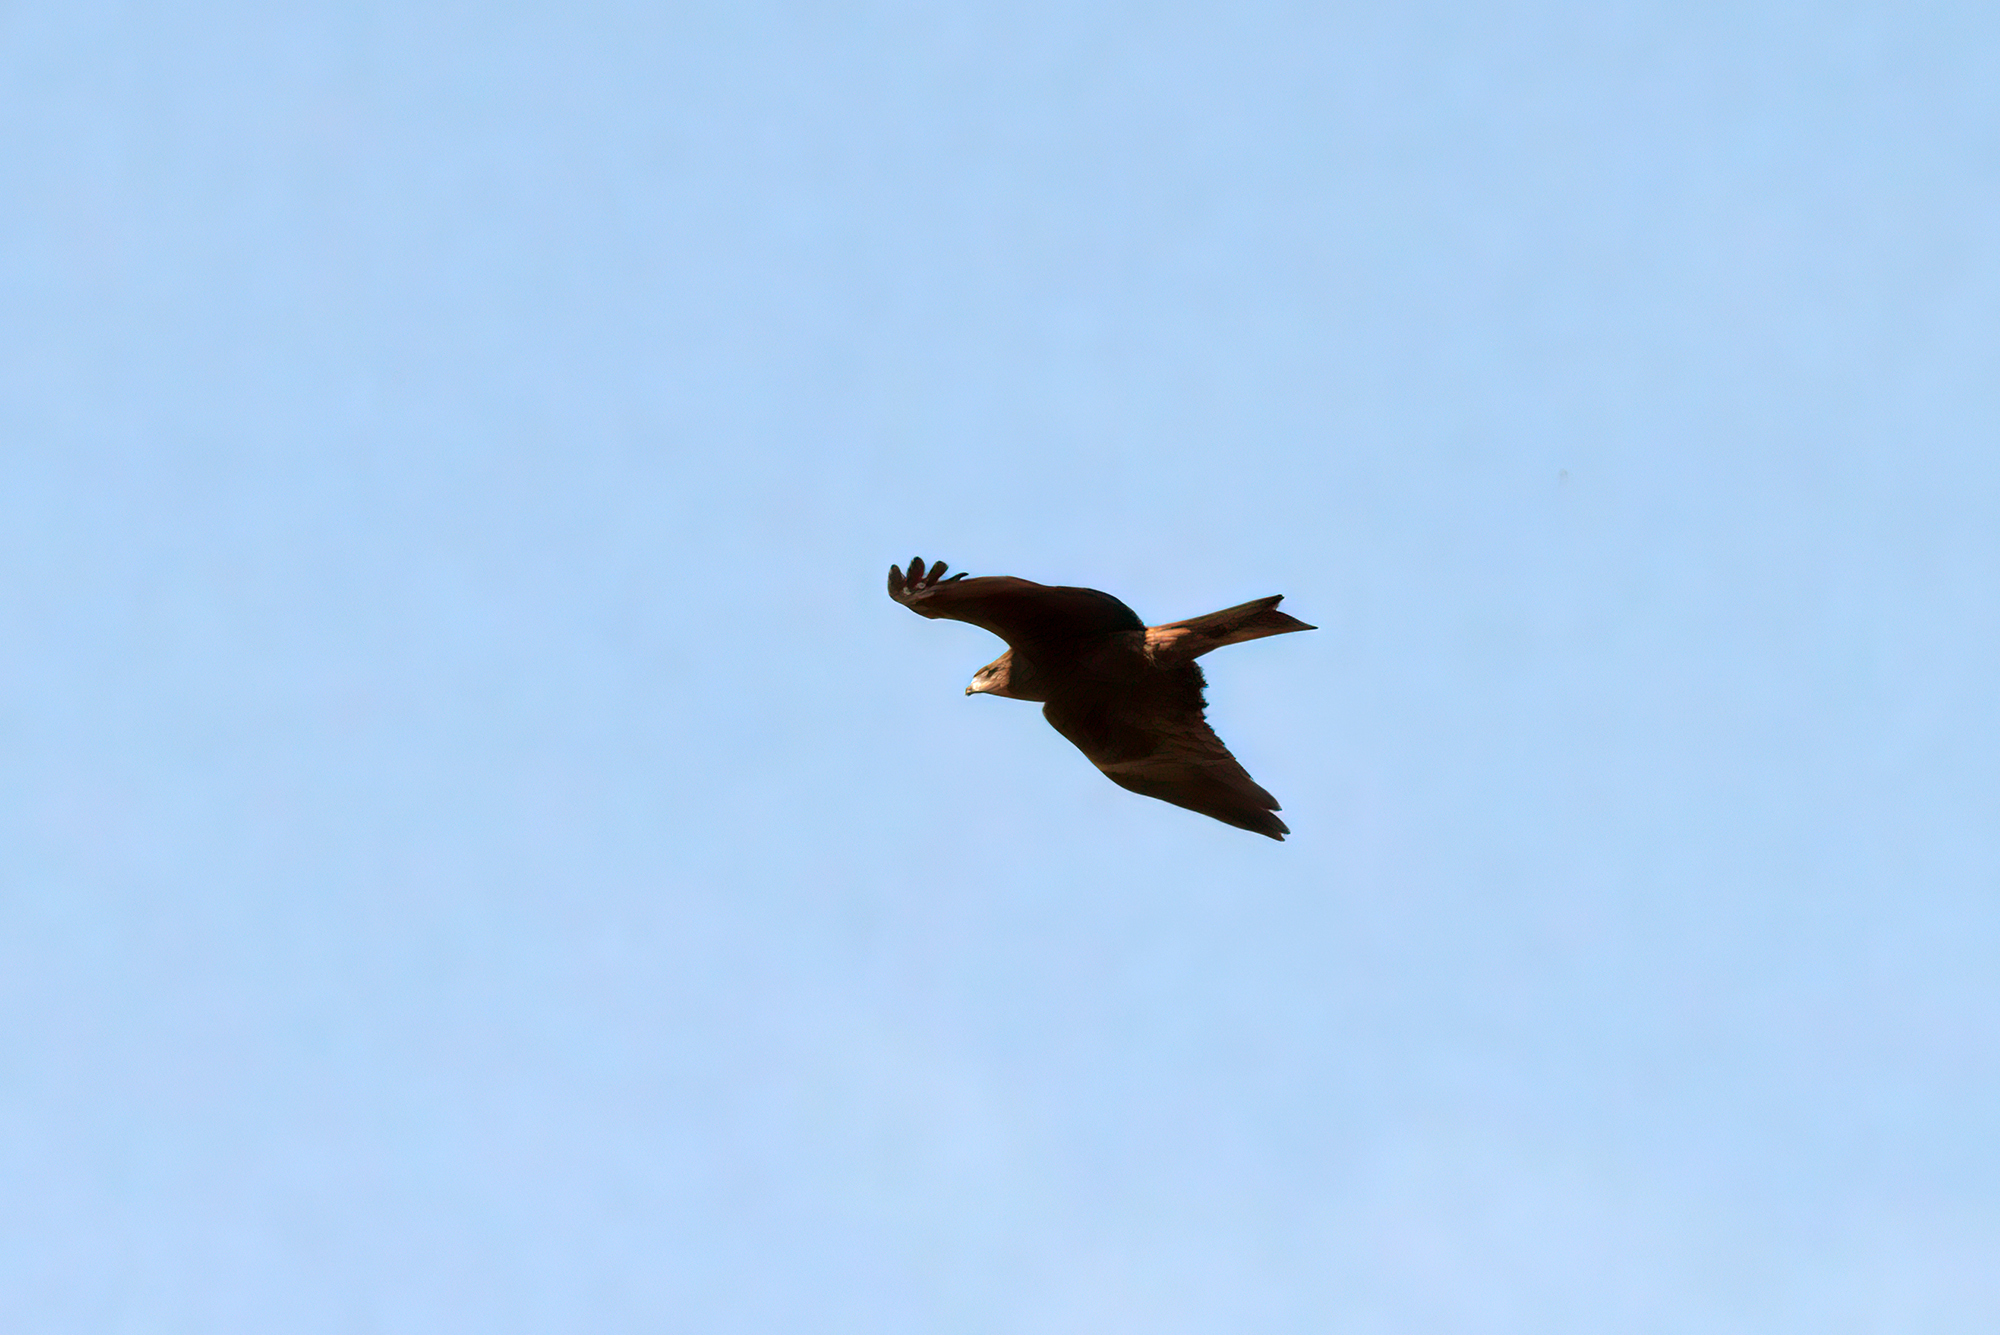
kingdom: Animalia
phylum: Chordata
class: Aves
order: Accipitriformes
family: Accipitridae
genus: Milvus
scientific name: Milvus migrans
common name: Black kite
